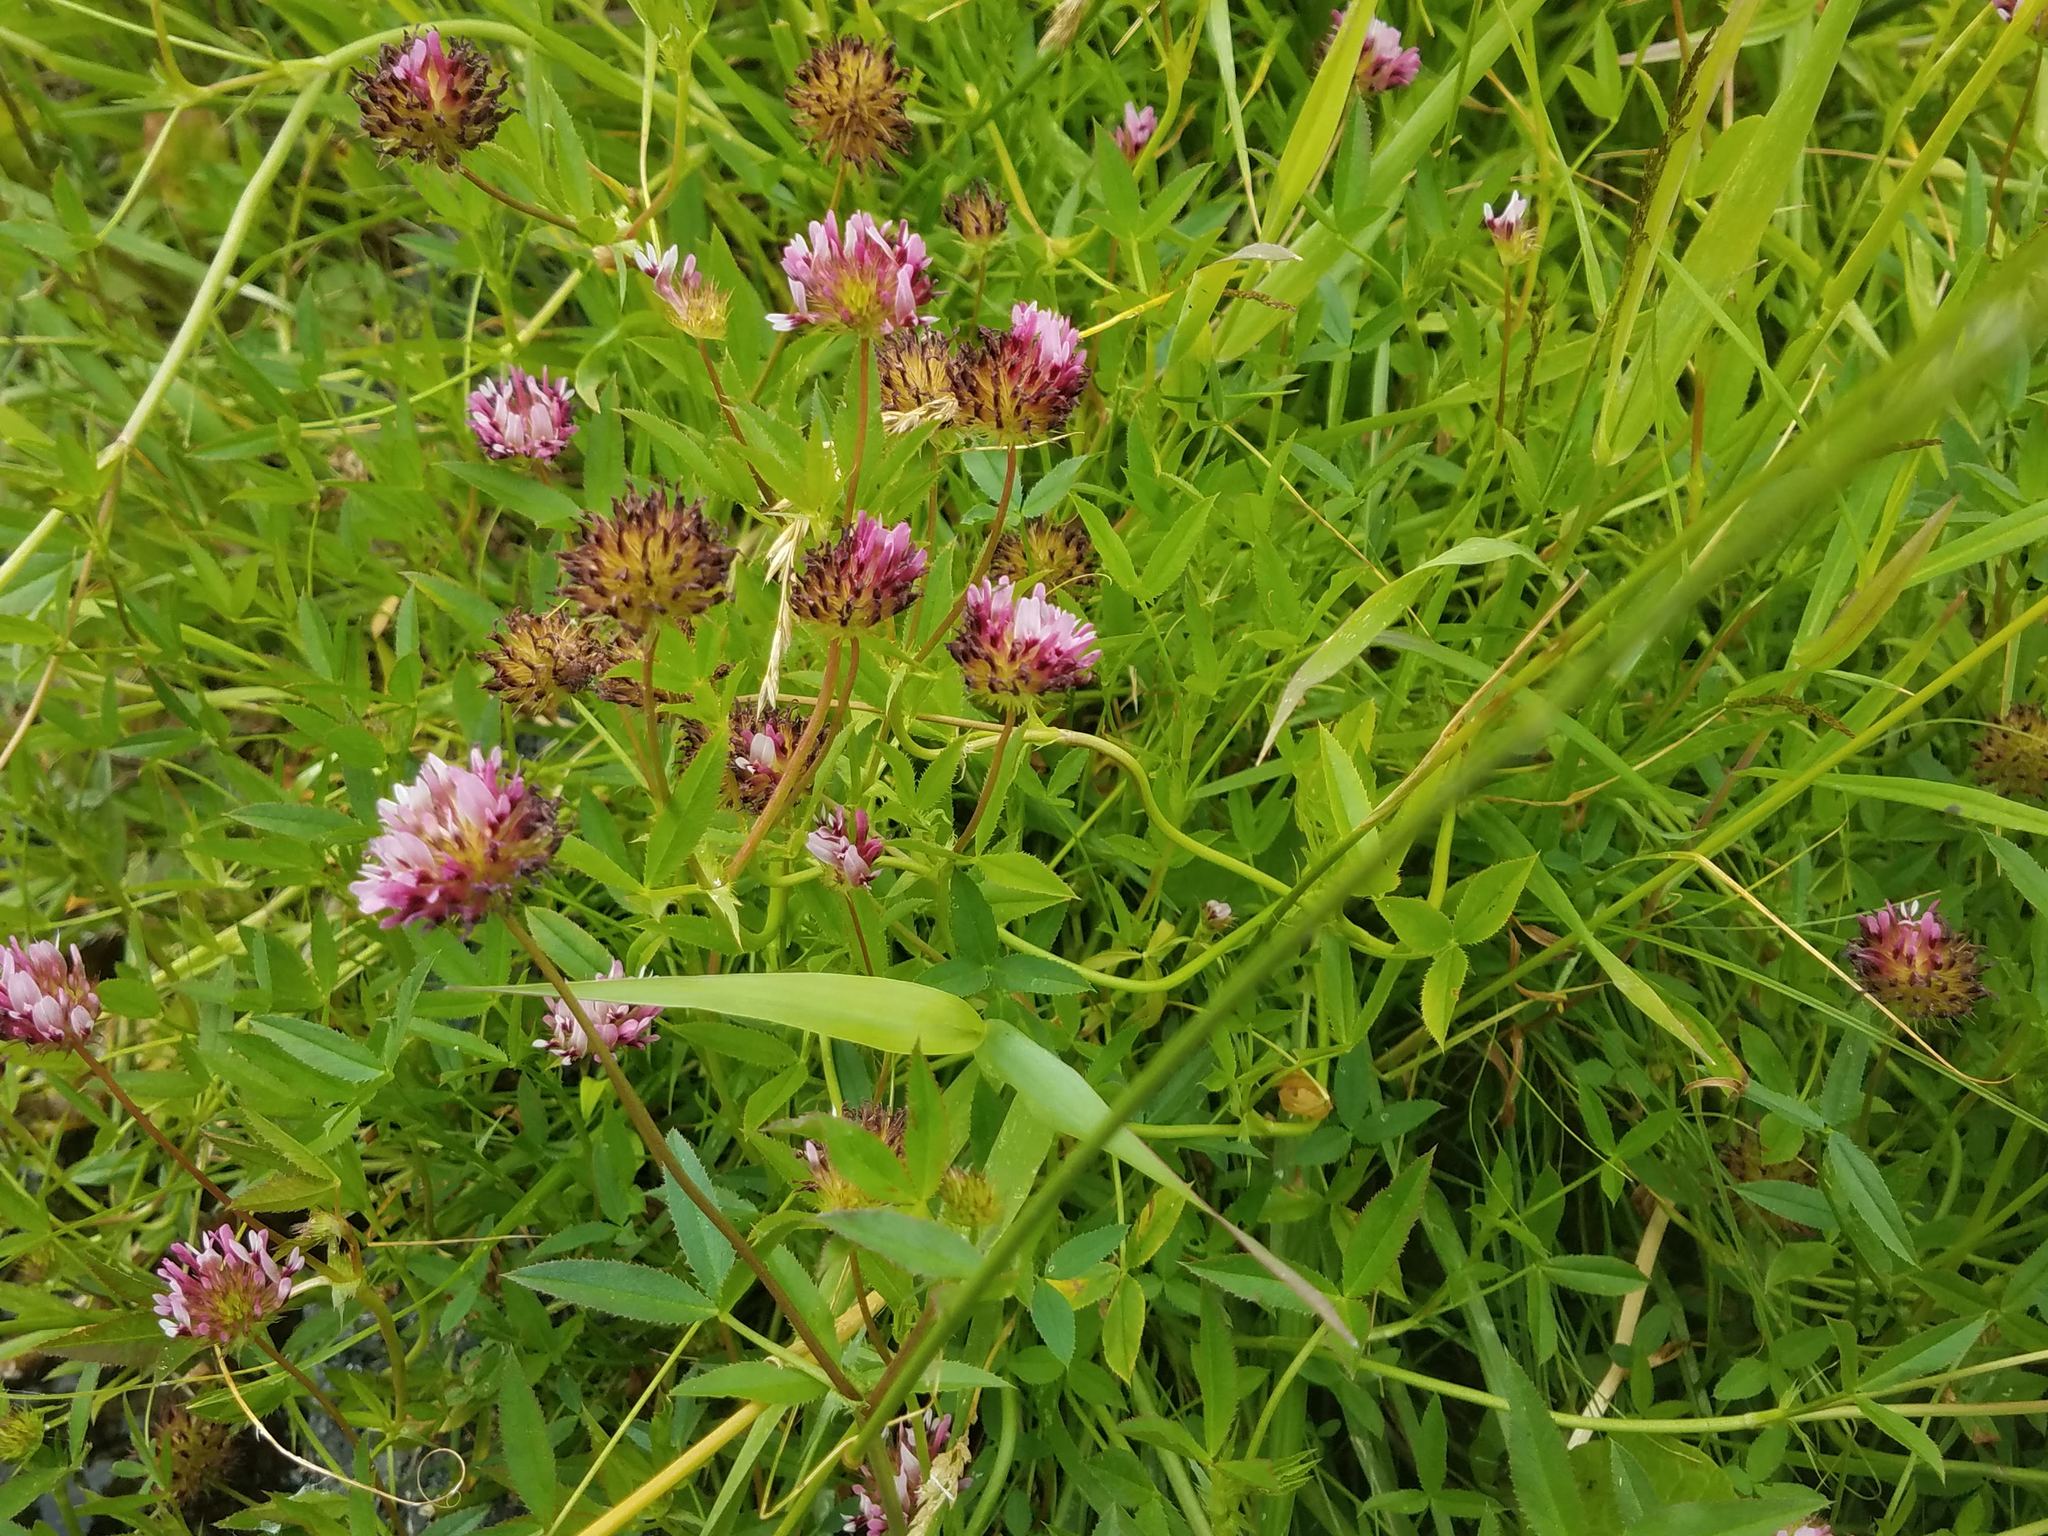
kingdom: Plantae
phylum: Tracheophyta
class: Magnoliopsida
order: Fabales
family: Fabaceae
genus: Trifolium
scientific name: Trifolium wormskioldii
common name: Springbank clover
